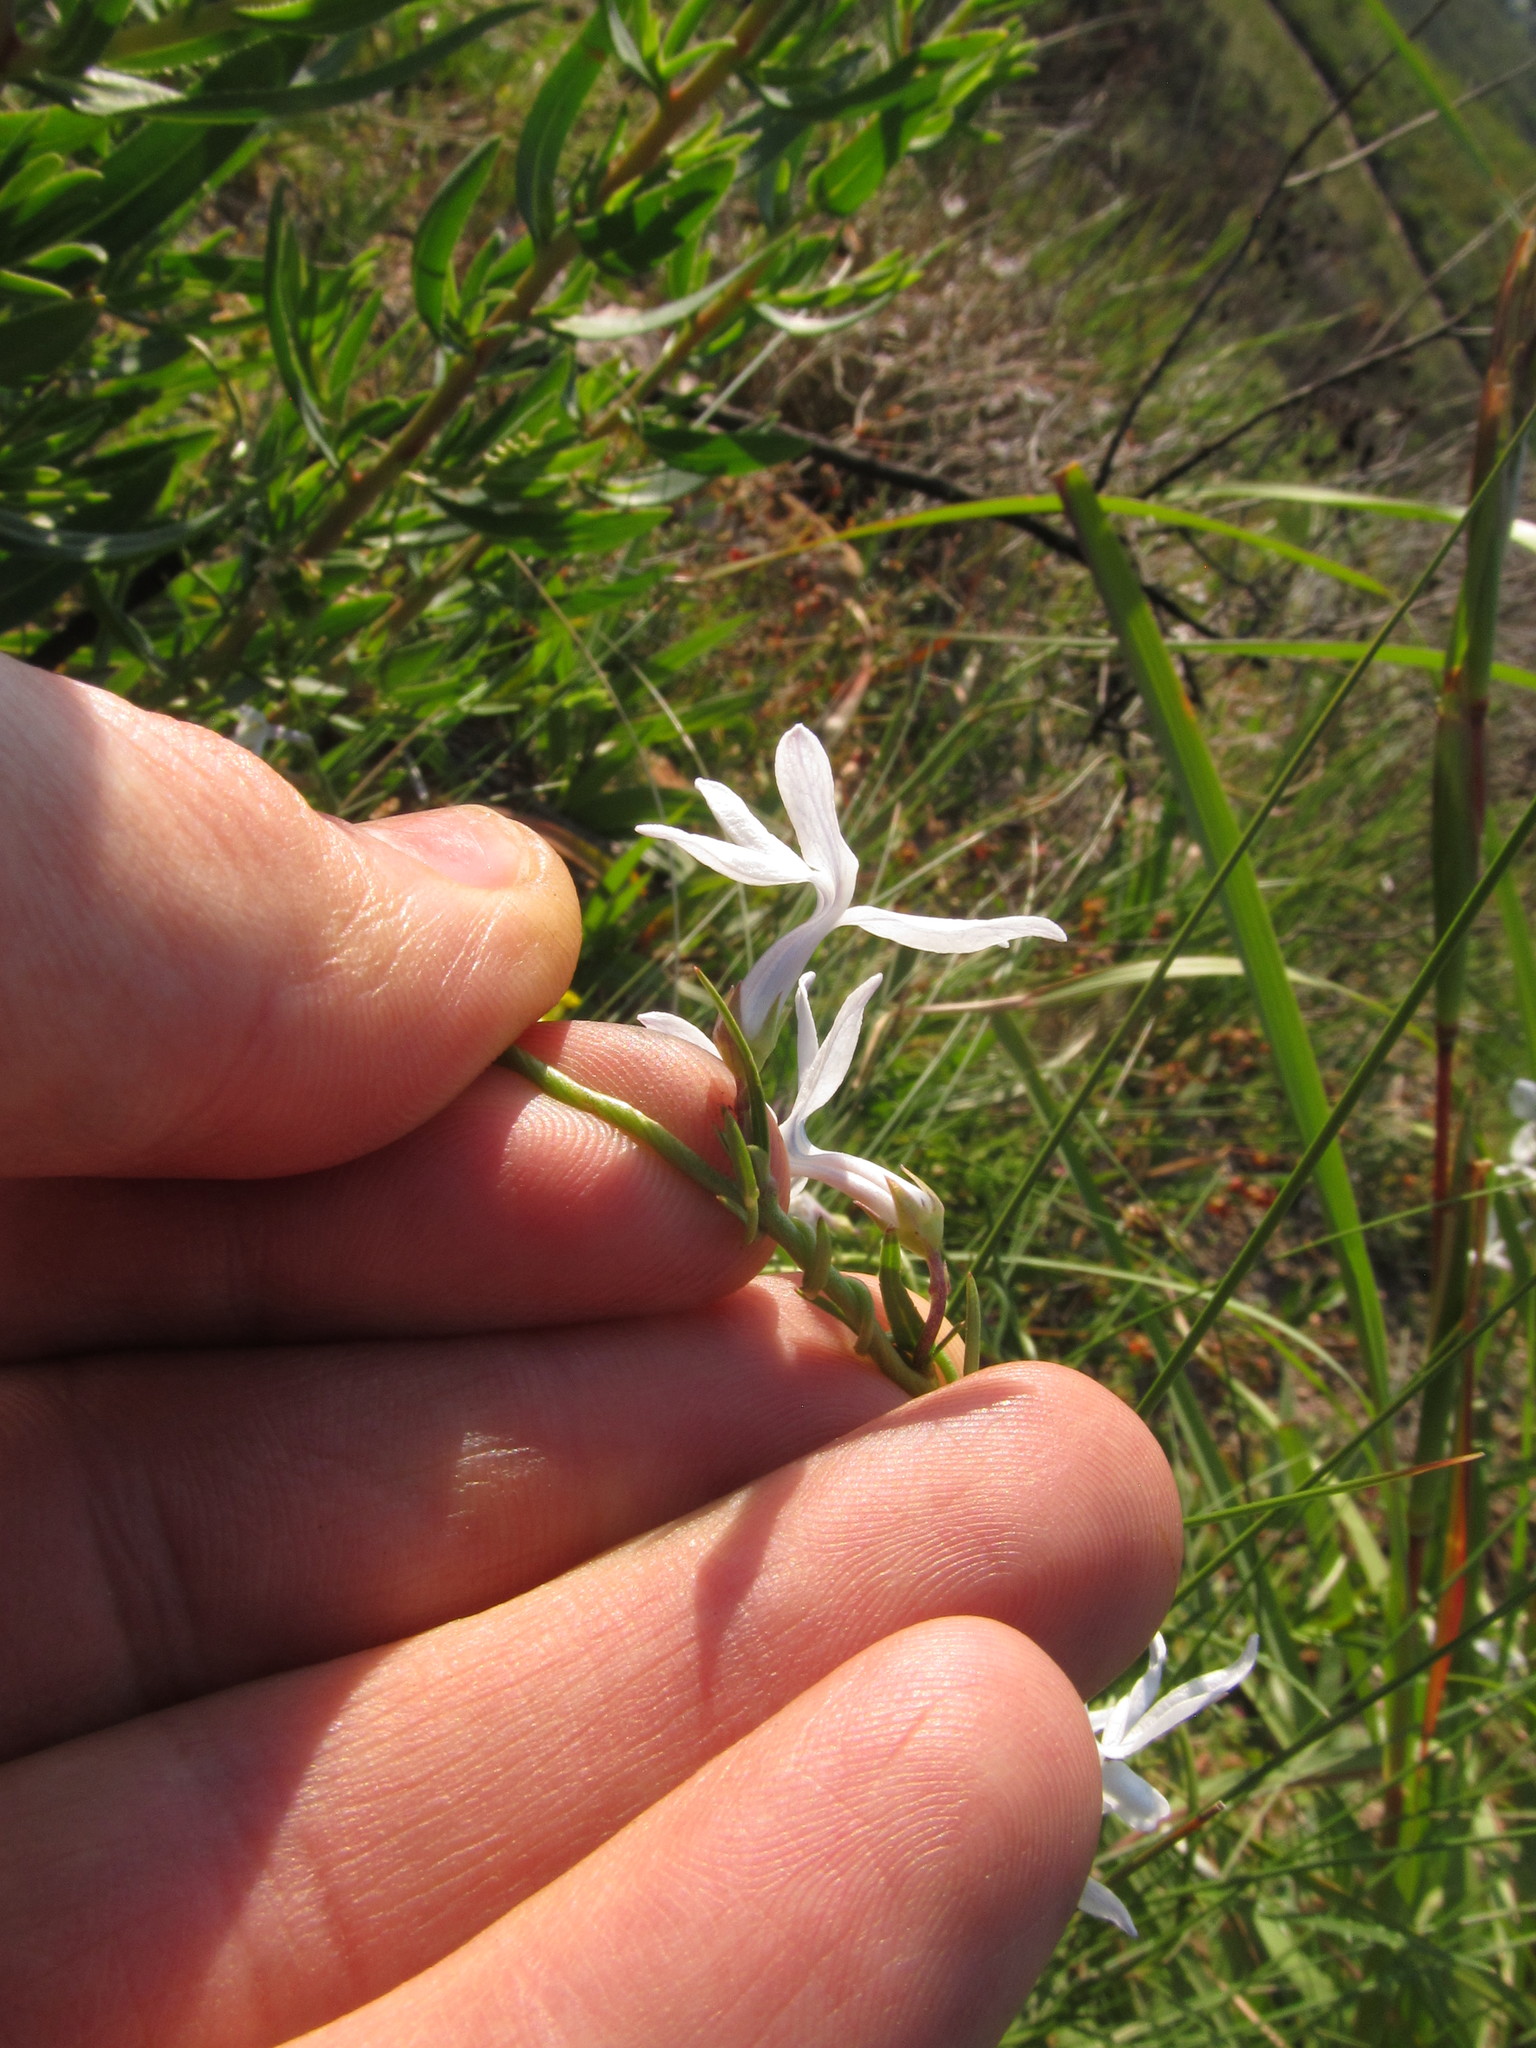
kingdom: Plantae
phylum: Tracheophyta
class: Magnoliopsida
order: Asterales
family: Campanulaceae
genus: Cyphia
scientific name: Cyphia volubilis
